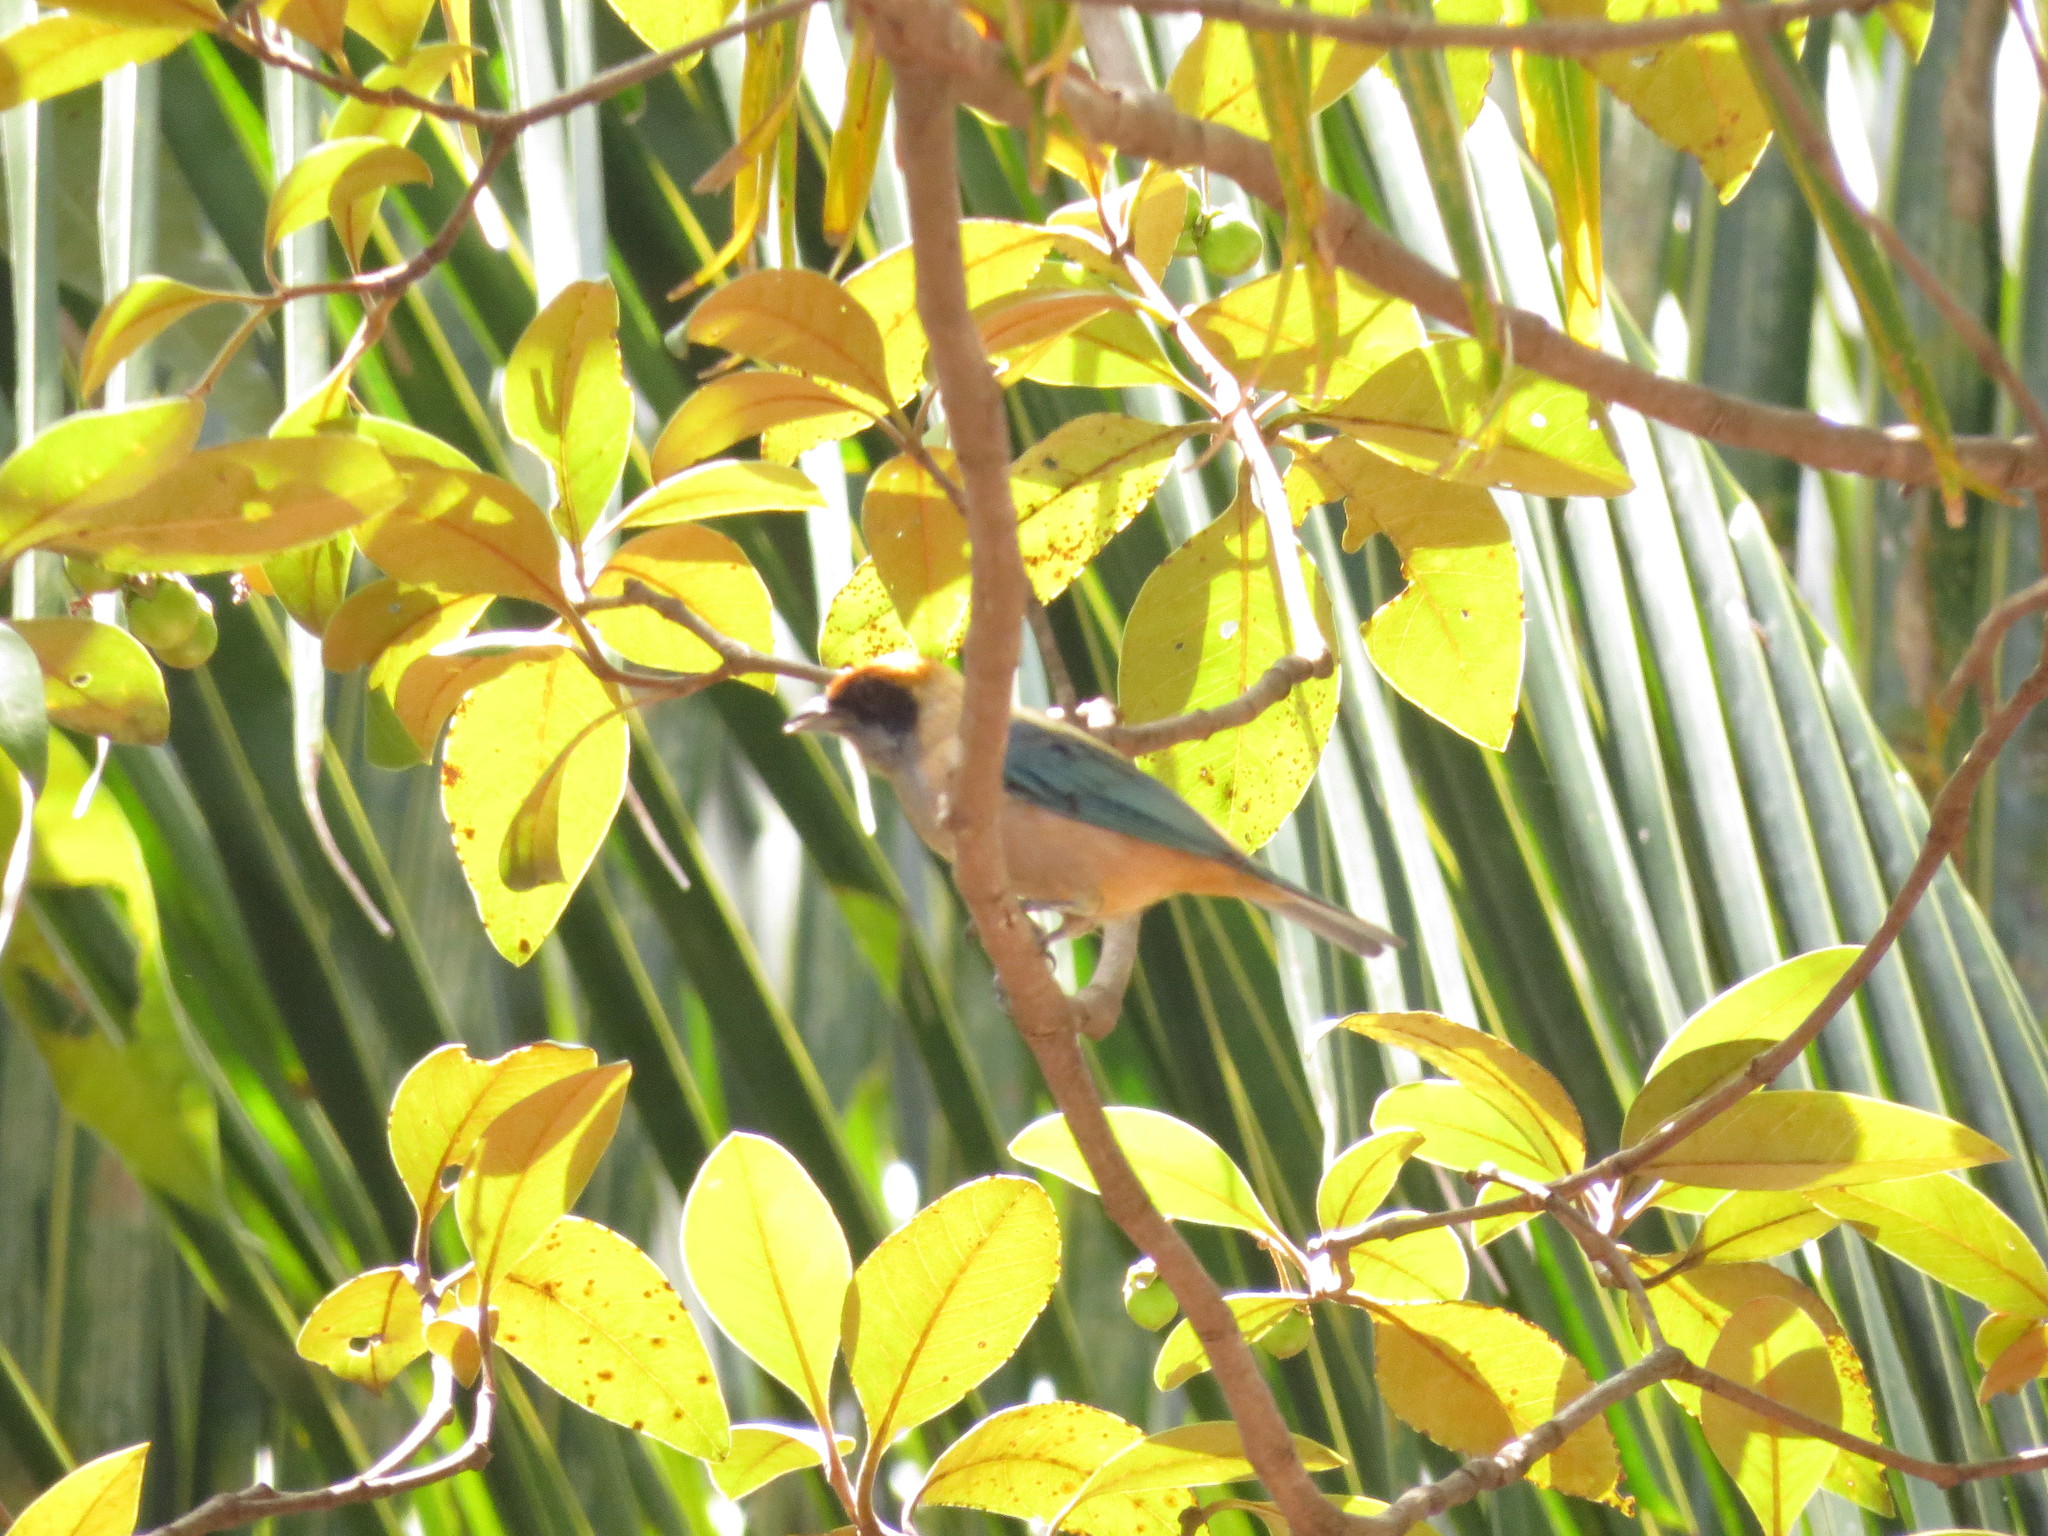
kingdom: Animalia
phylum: Chordata
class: Aves
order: Passeriformes
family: Thraupidae
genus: Stilpnia
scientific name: Stilpnia cayana
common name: Burnished-buff tanager
